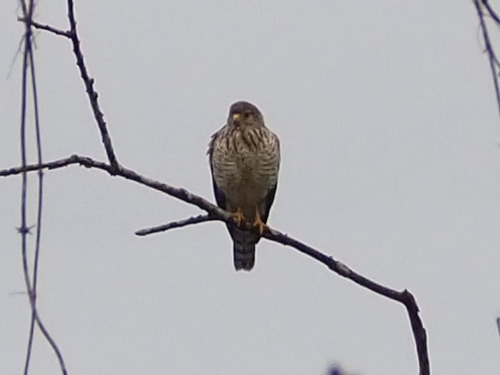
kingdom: Animalia
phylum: Chordata
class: Aves
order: Accipitriformes
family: Accipitridae
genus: Rupornis
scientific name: Rupornis magnirostris
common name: Roadside hawk
